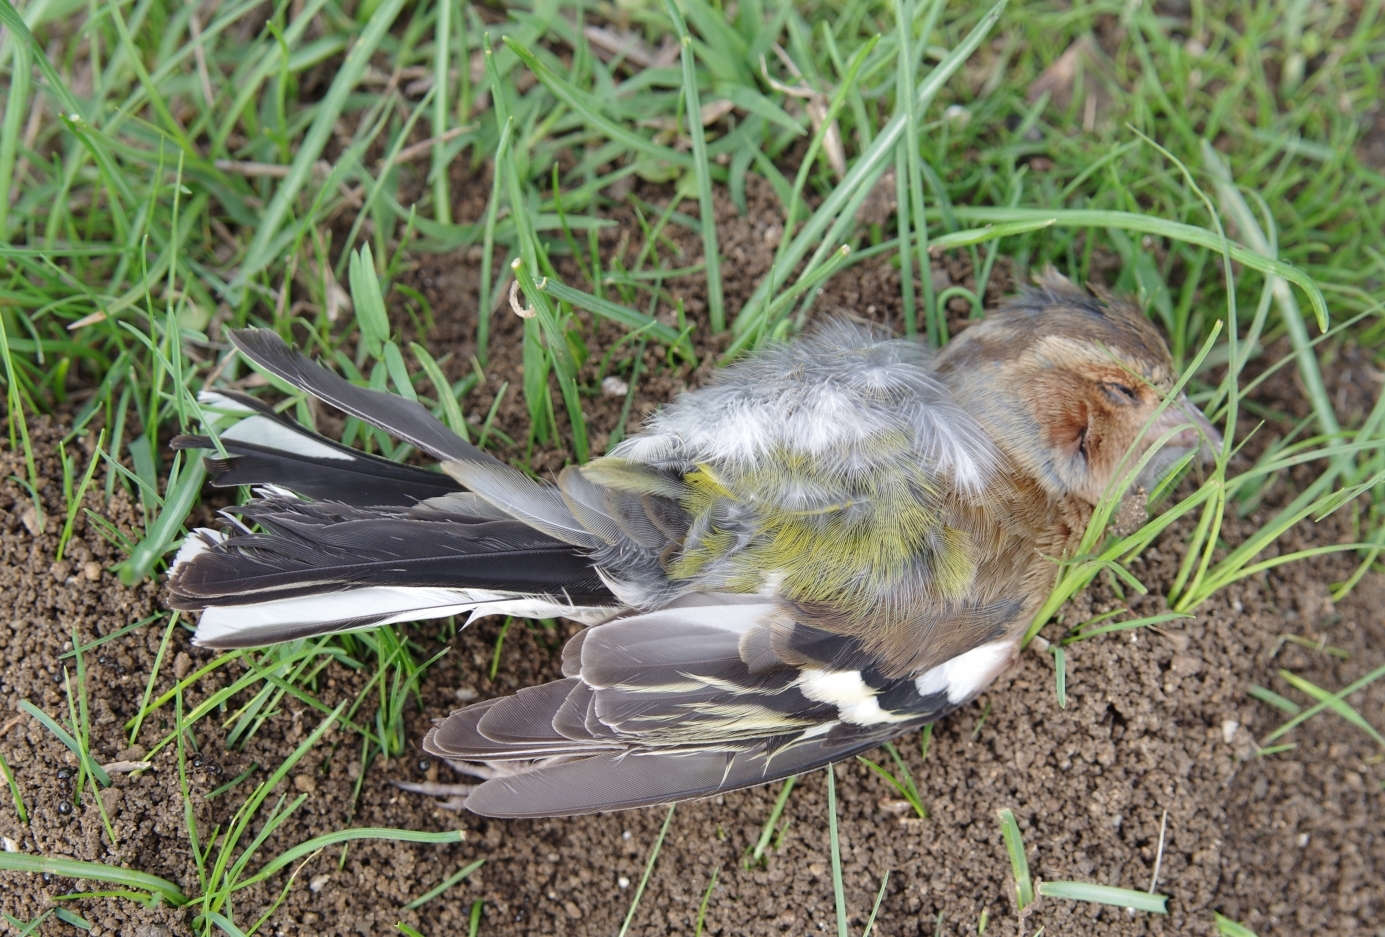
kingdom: Animalia
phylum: Chordata
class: Aves
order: Passeriformes
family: Fringillidae
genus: Fringilla
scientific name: Fringilla coelebs
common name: Common chaffinch
